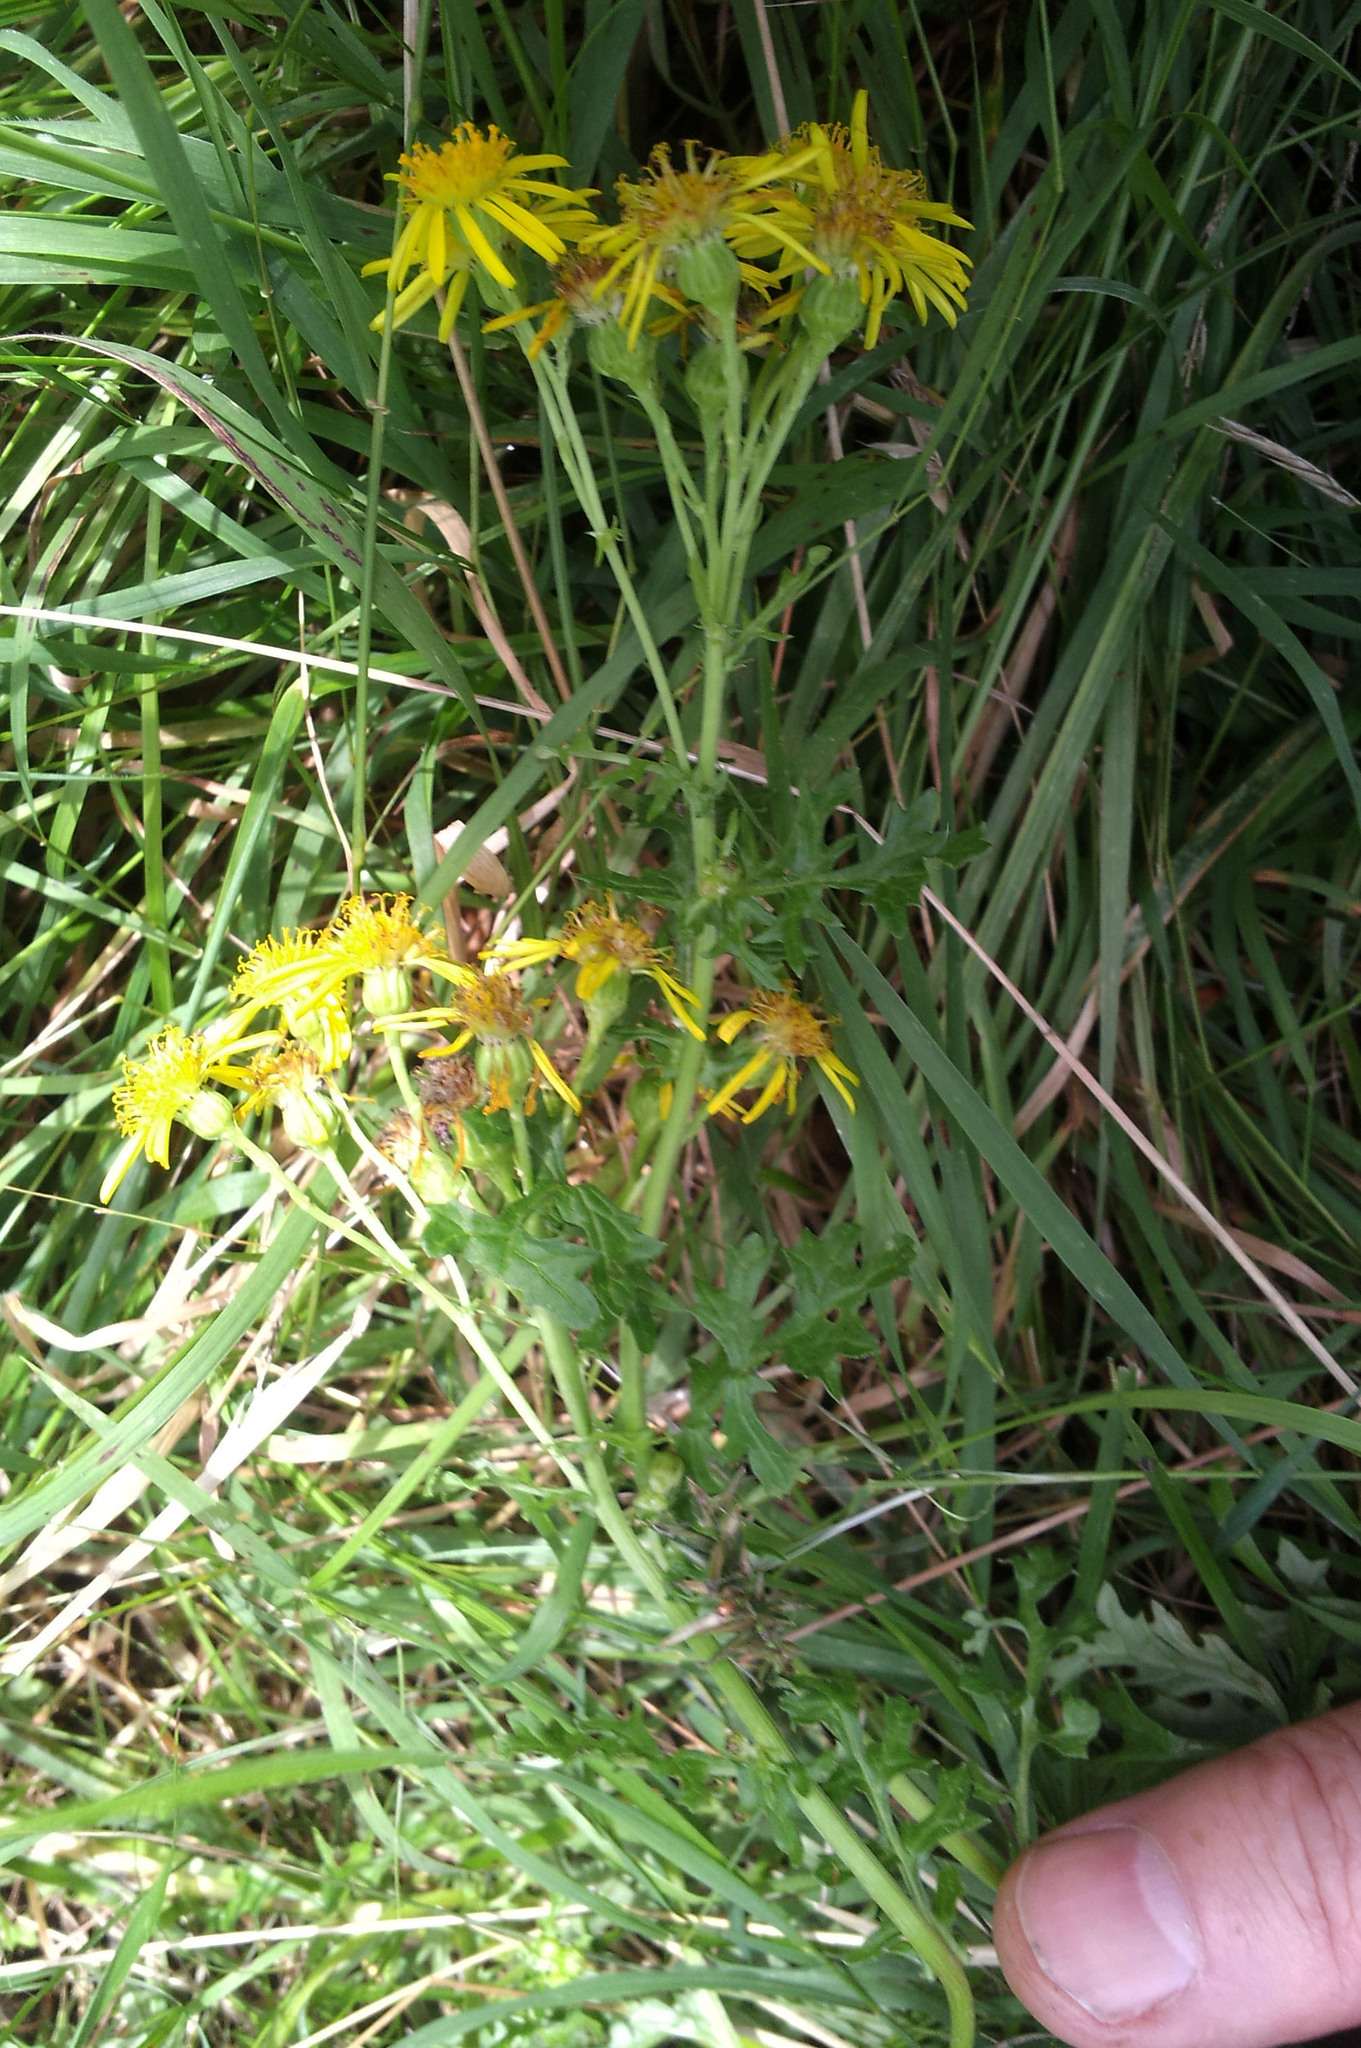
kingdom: Plantae
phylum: Tracheophyta
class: Magnoliopsida
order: Asterales
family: Asteraceae
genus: Jacobaea
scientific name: Jacobaea vulgaris
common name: Stinking willie
